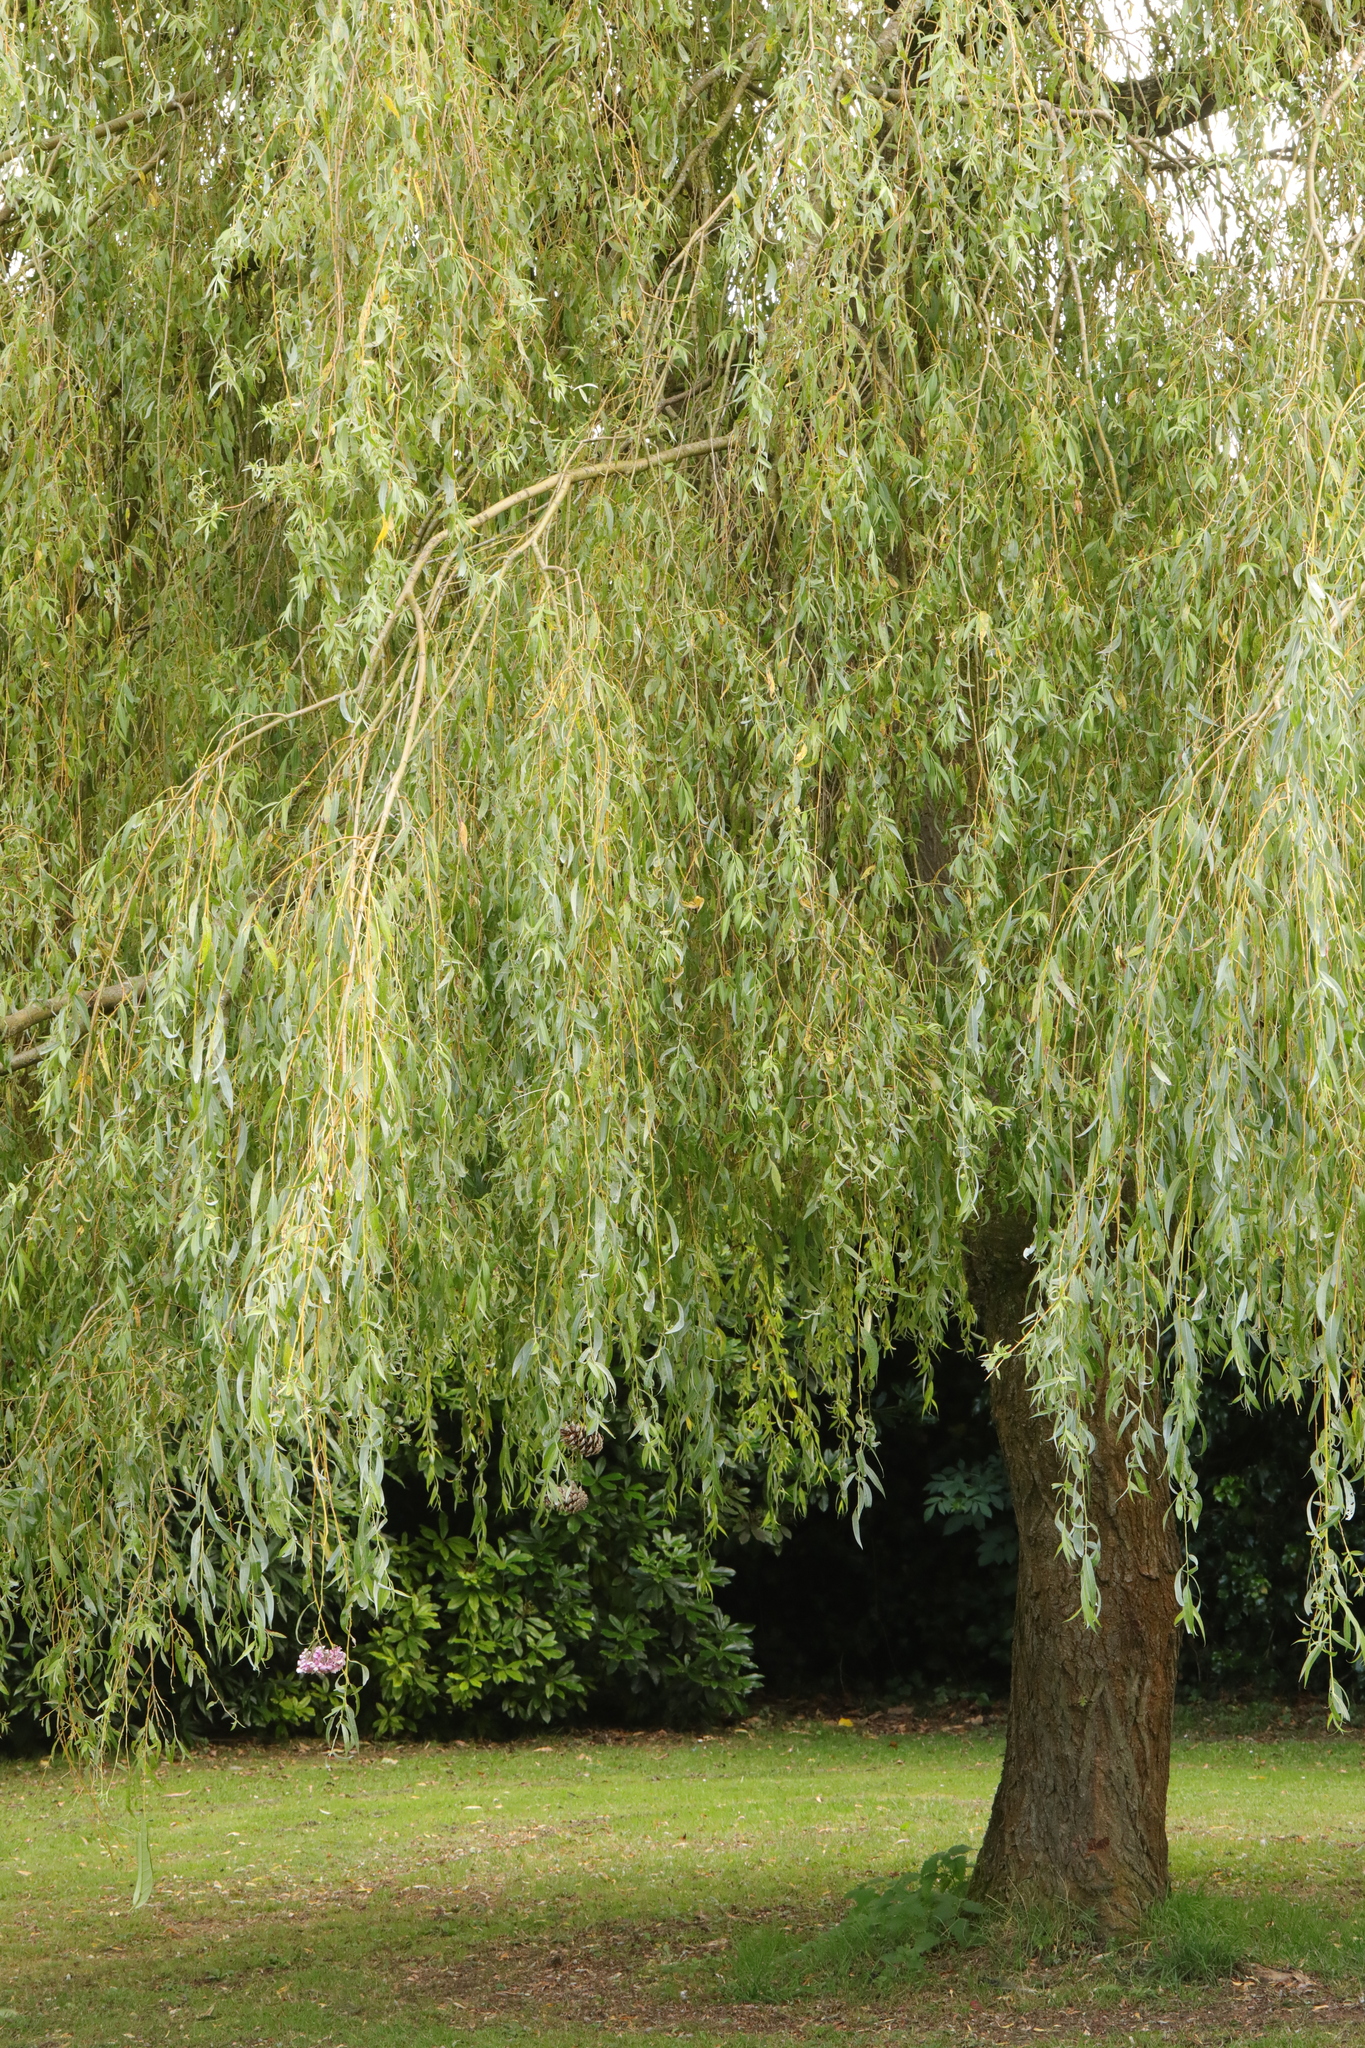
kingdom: Plantae
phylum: Tracheophyta
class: Magnoliopsida
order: Malpighiales
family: Salicaceae
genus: Salix
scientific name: Salix pendulina
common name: Wisconsin weeping willow
